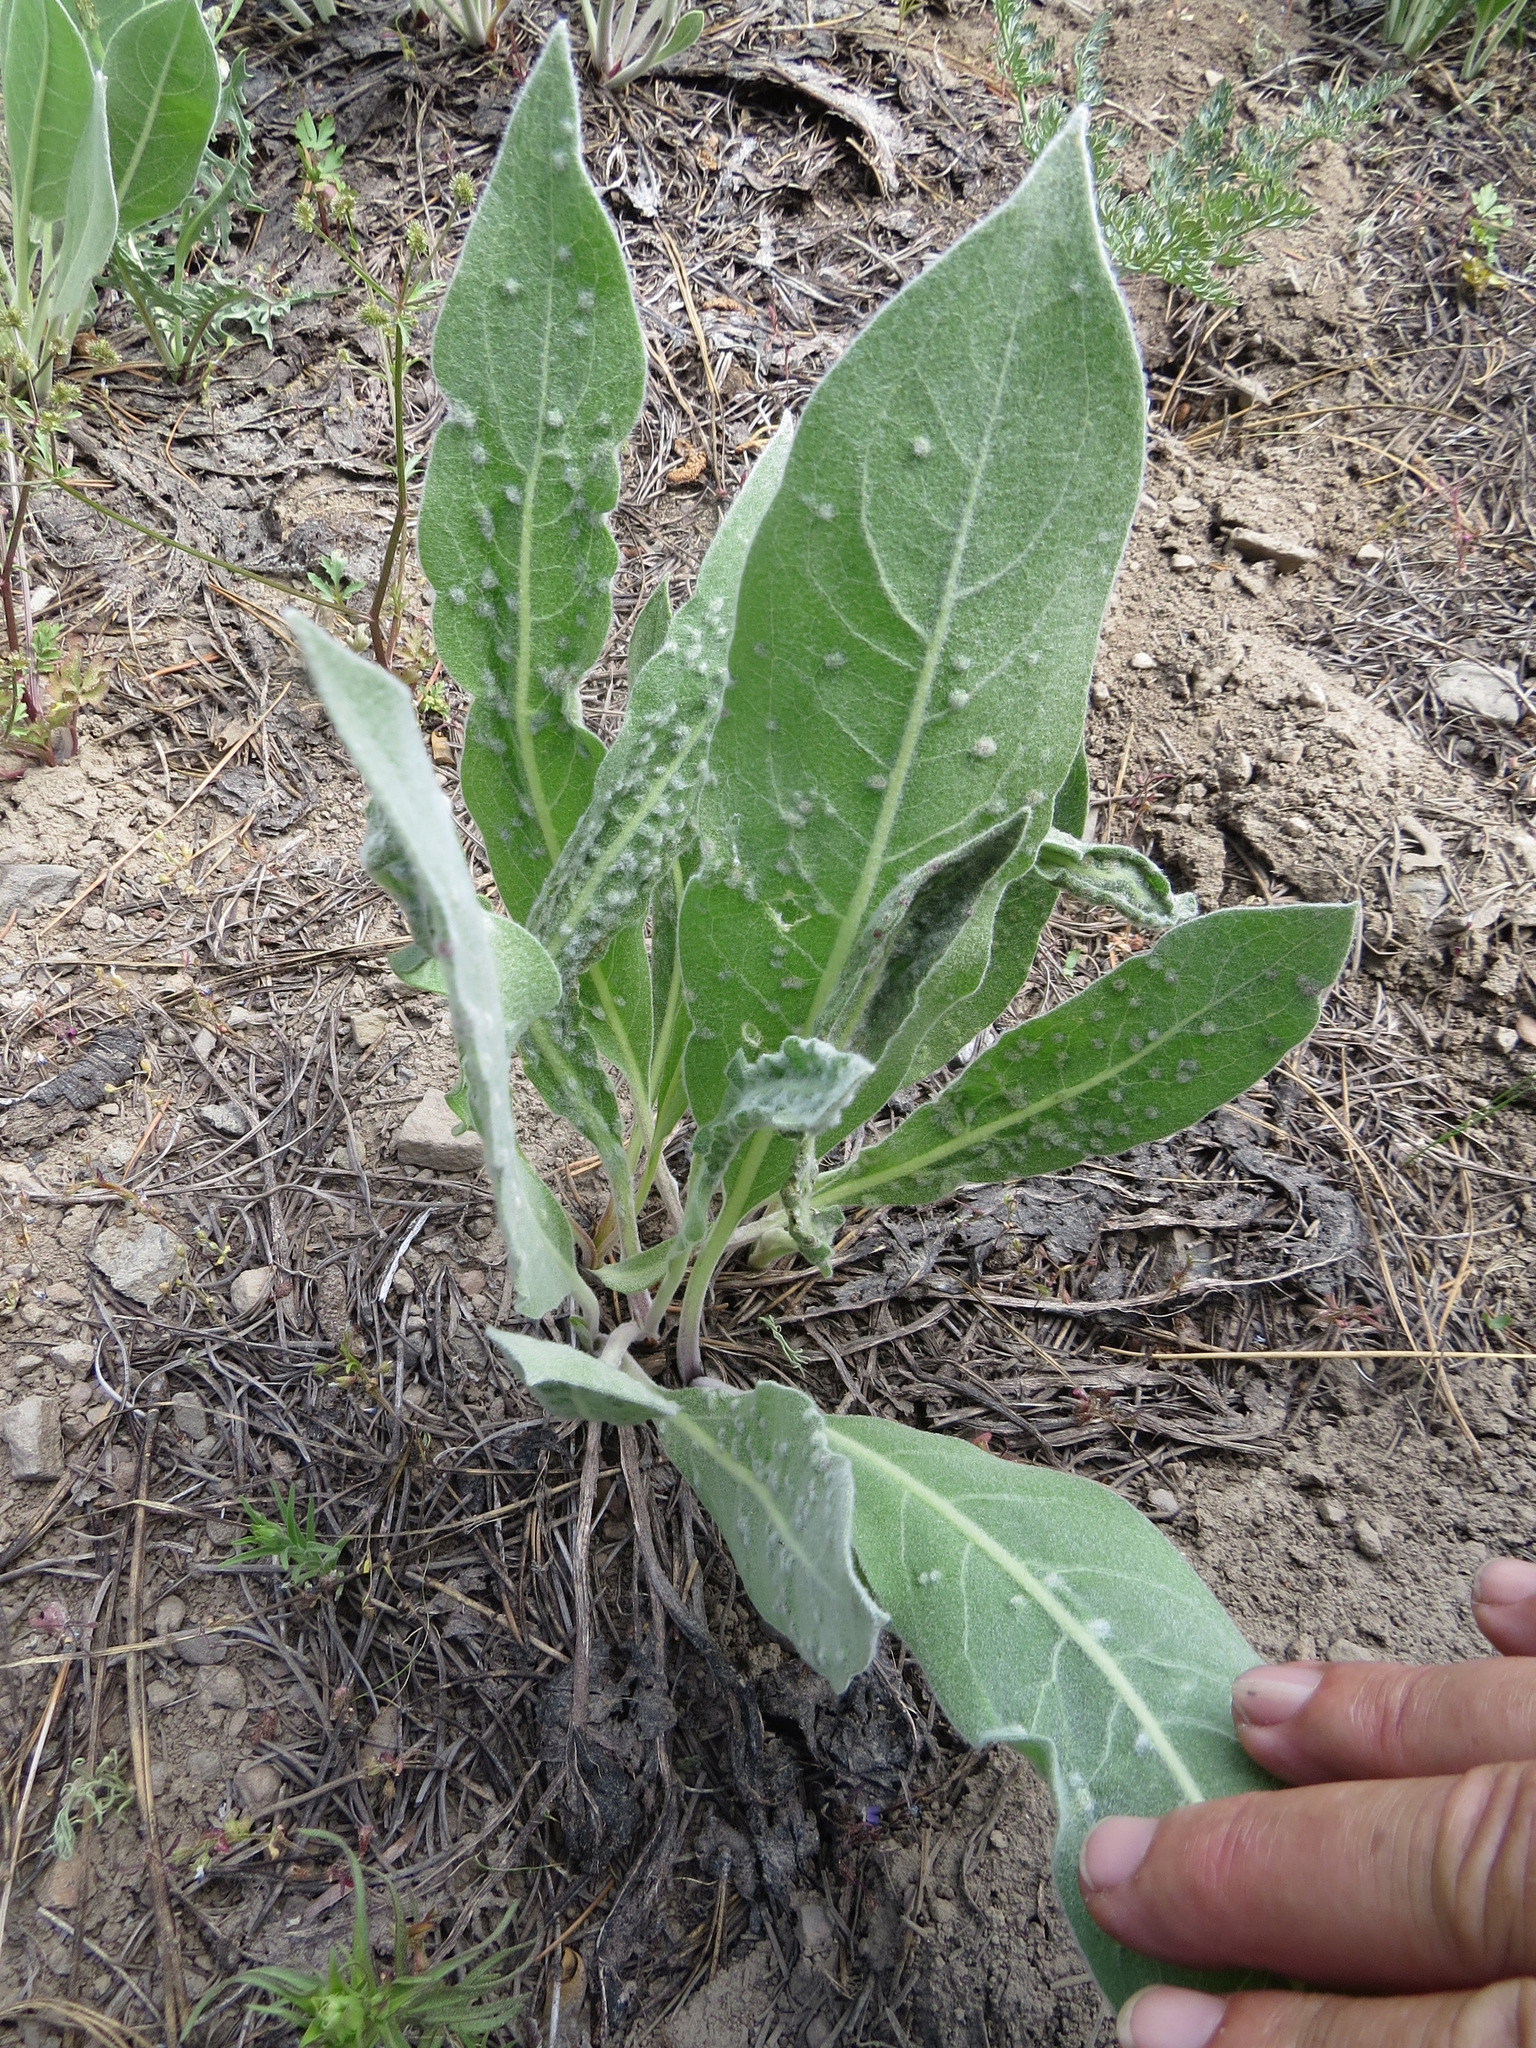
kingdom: Animalia
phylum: Nematoda
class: Chromadorea
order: Rhabditida
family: Anguinidae
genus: Anguina
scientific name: Anguina
